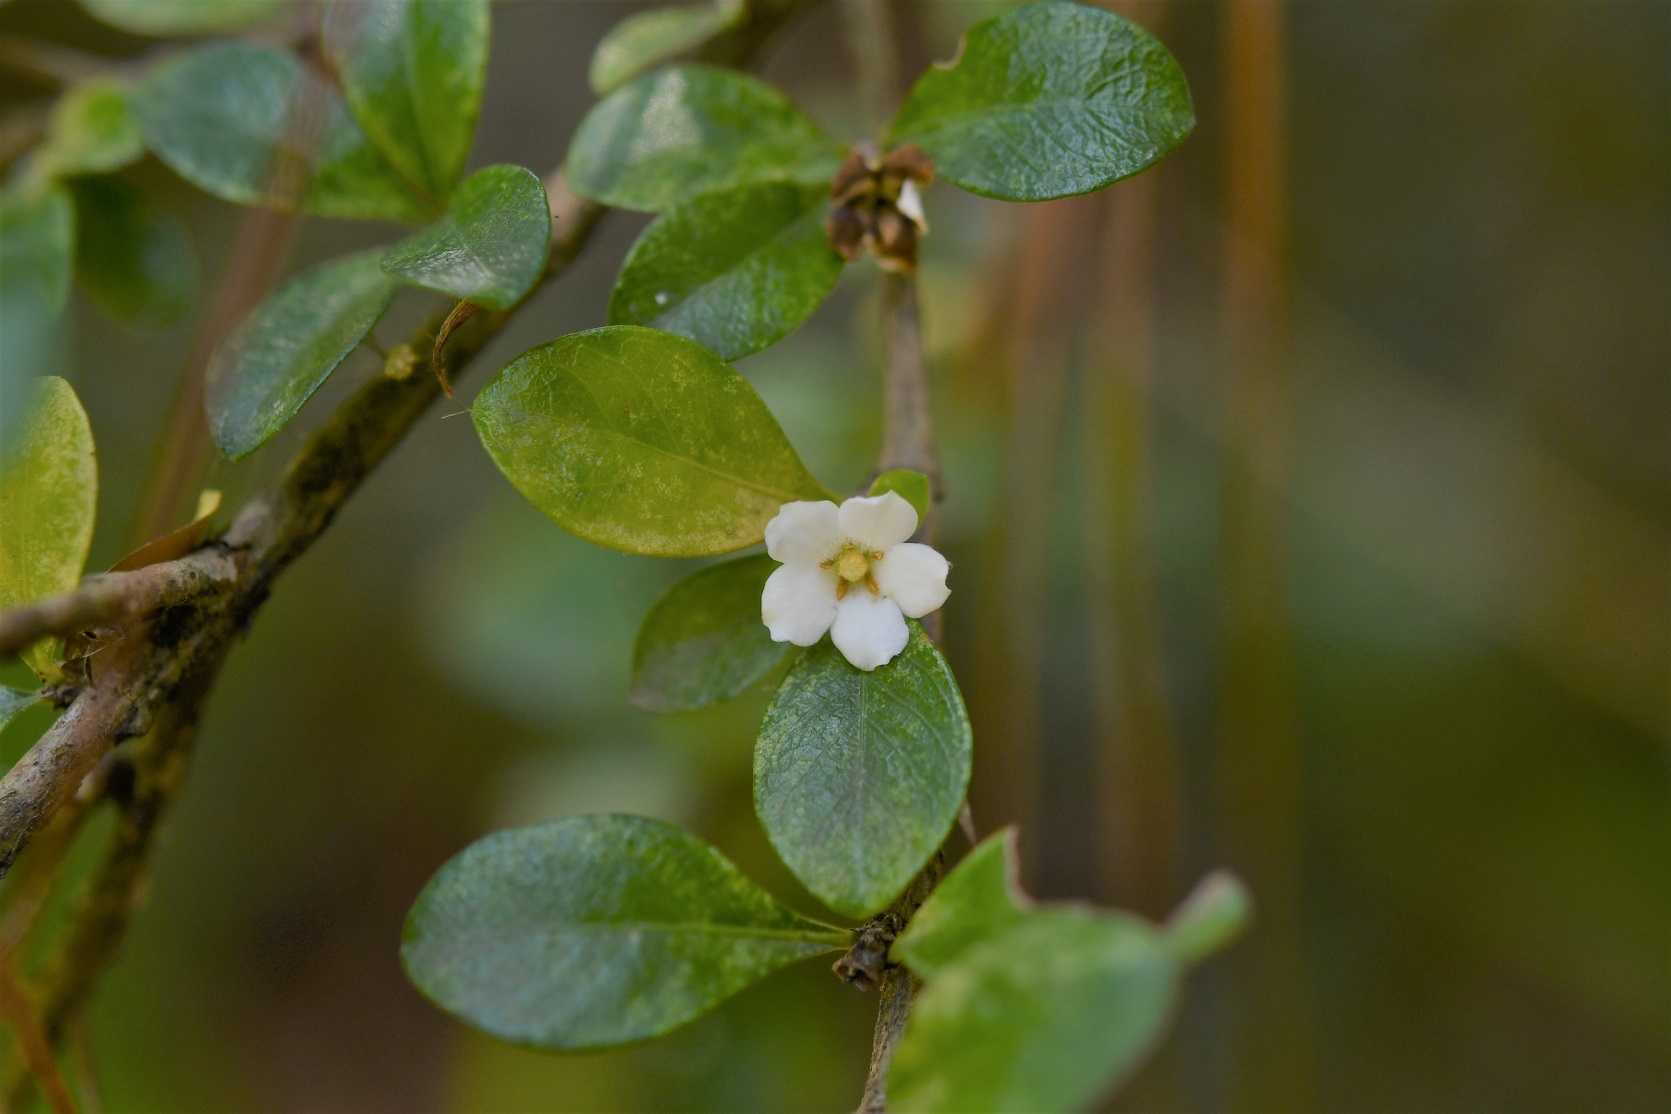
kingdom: Plantae
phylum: Tracheophyta
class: Magnoliopsida
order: Gentianales
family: Rubiaceae
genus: Randia
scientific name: Randia chiapensis
